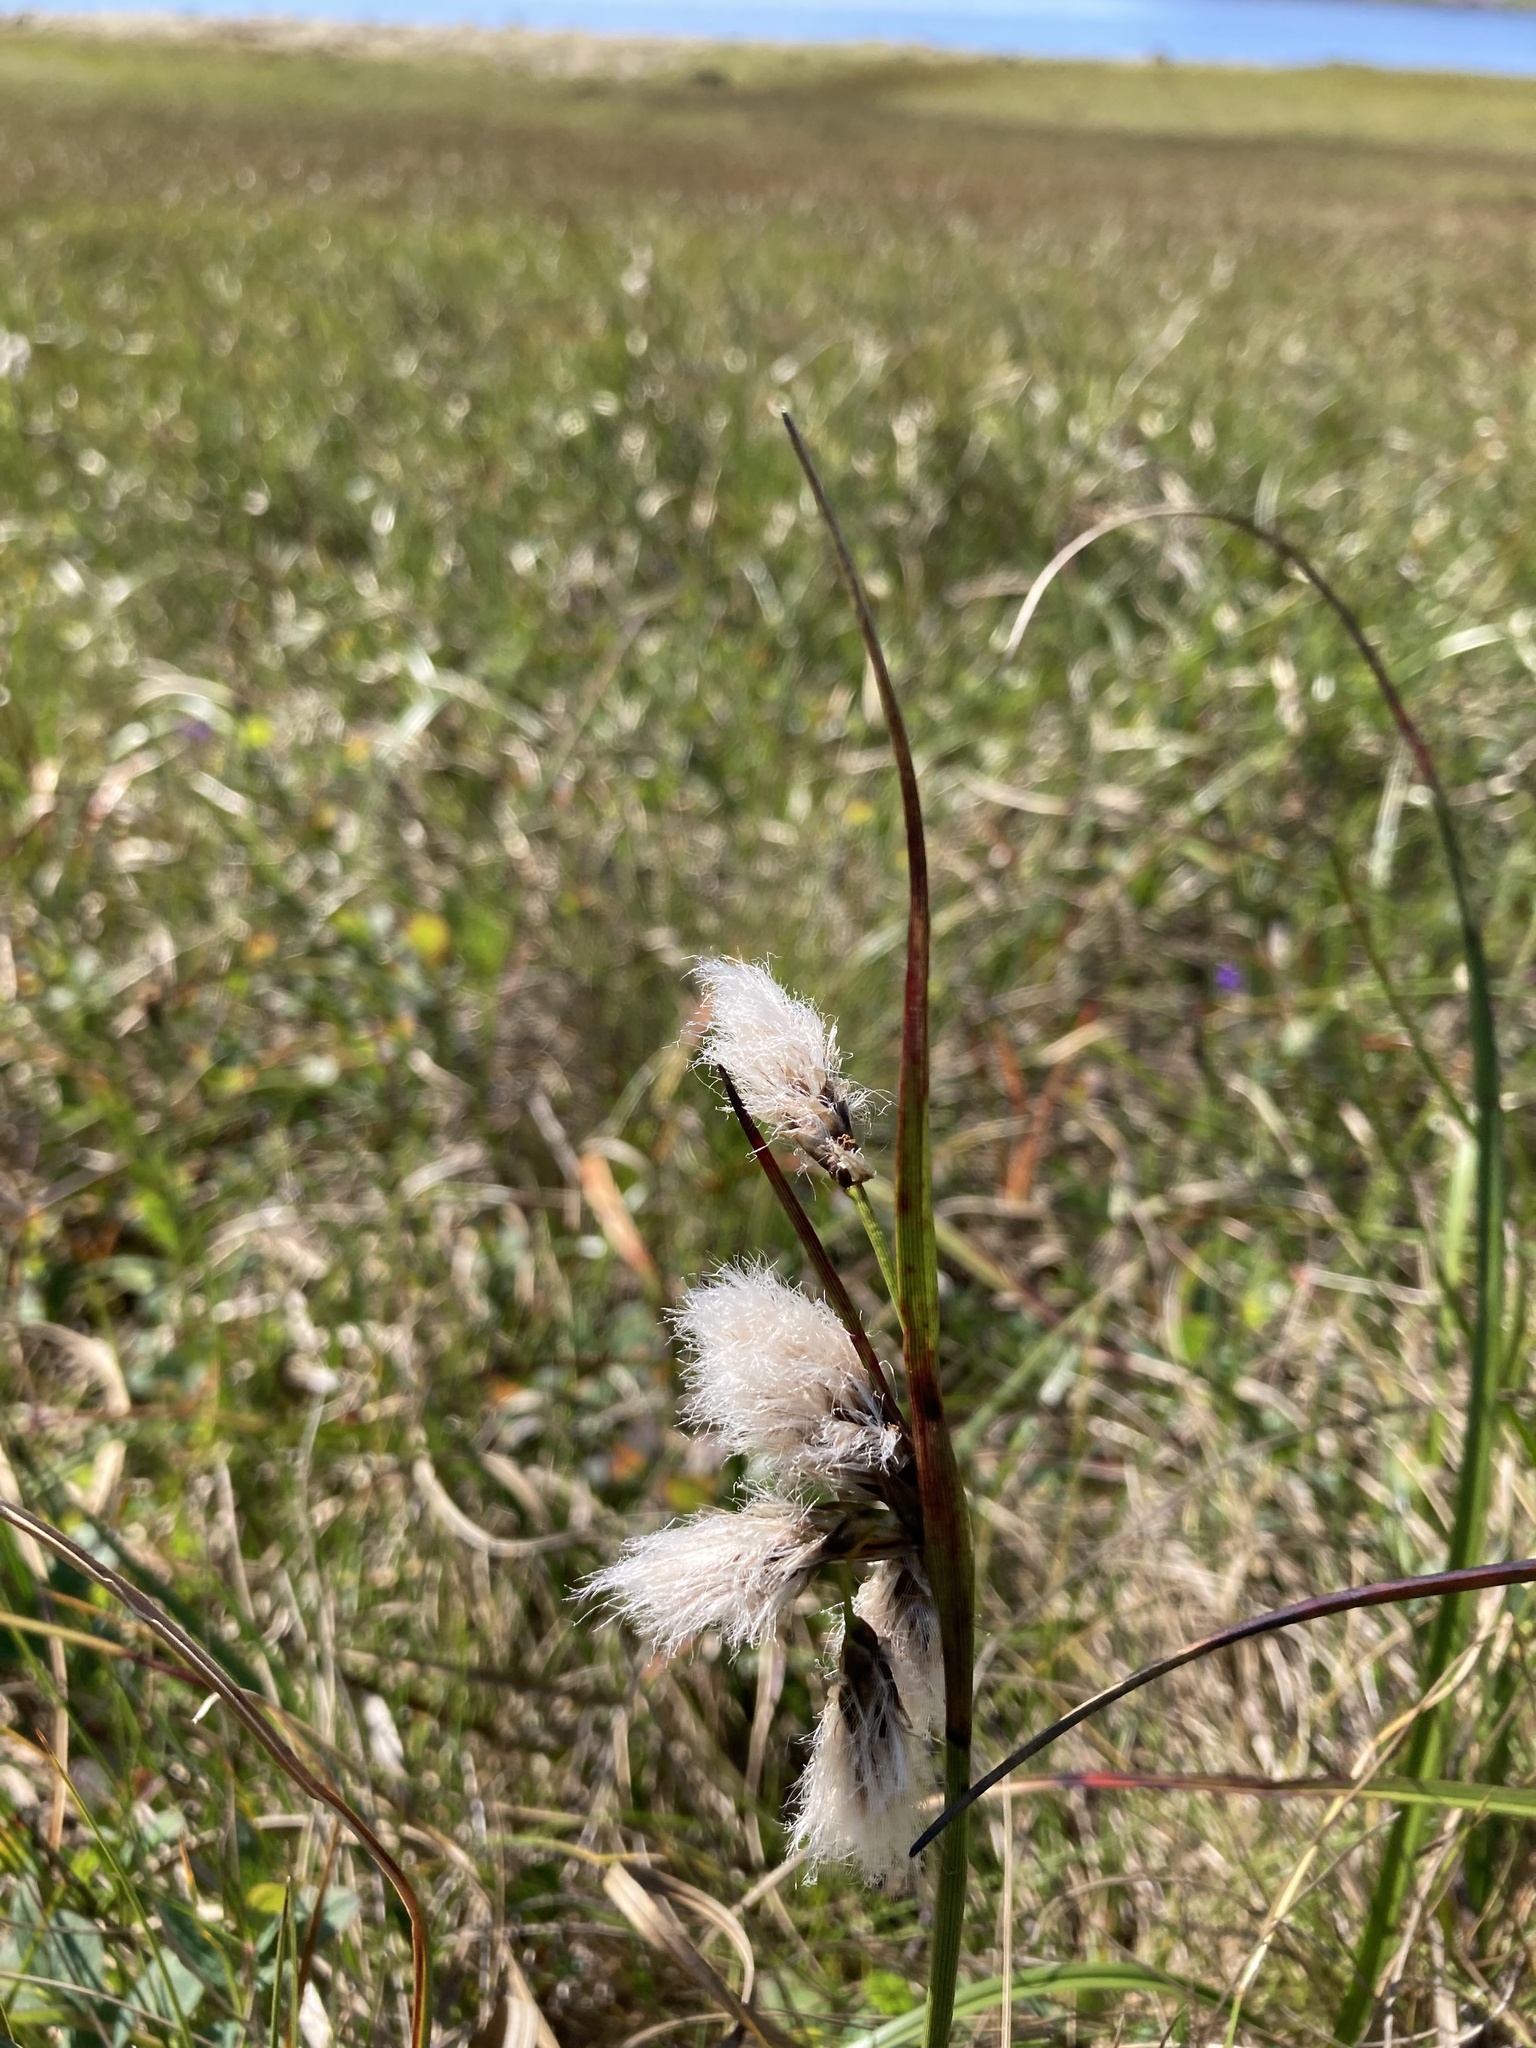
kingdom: Plantae
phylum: Tracheophyta
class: Liliopsida
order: Poales
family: Cyperaceae
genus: Eriophorum
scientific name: Eriophorum angustifolium
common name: Common cottongrass
